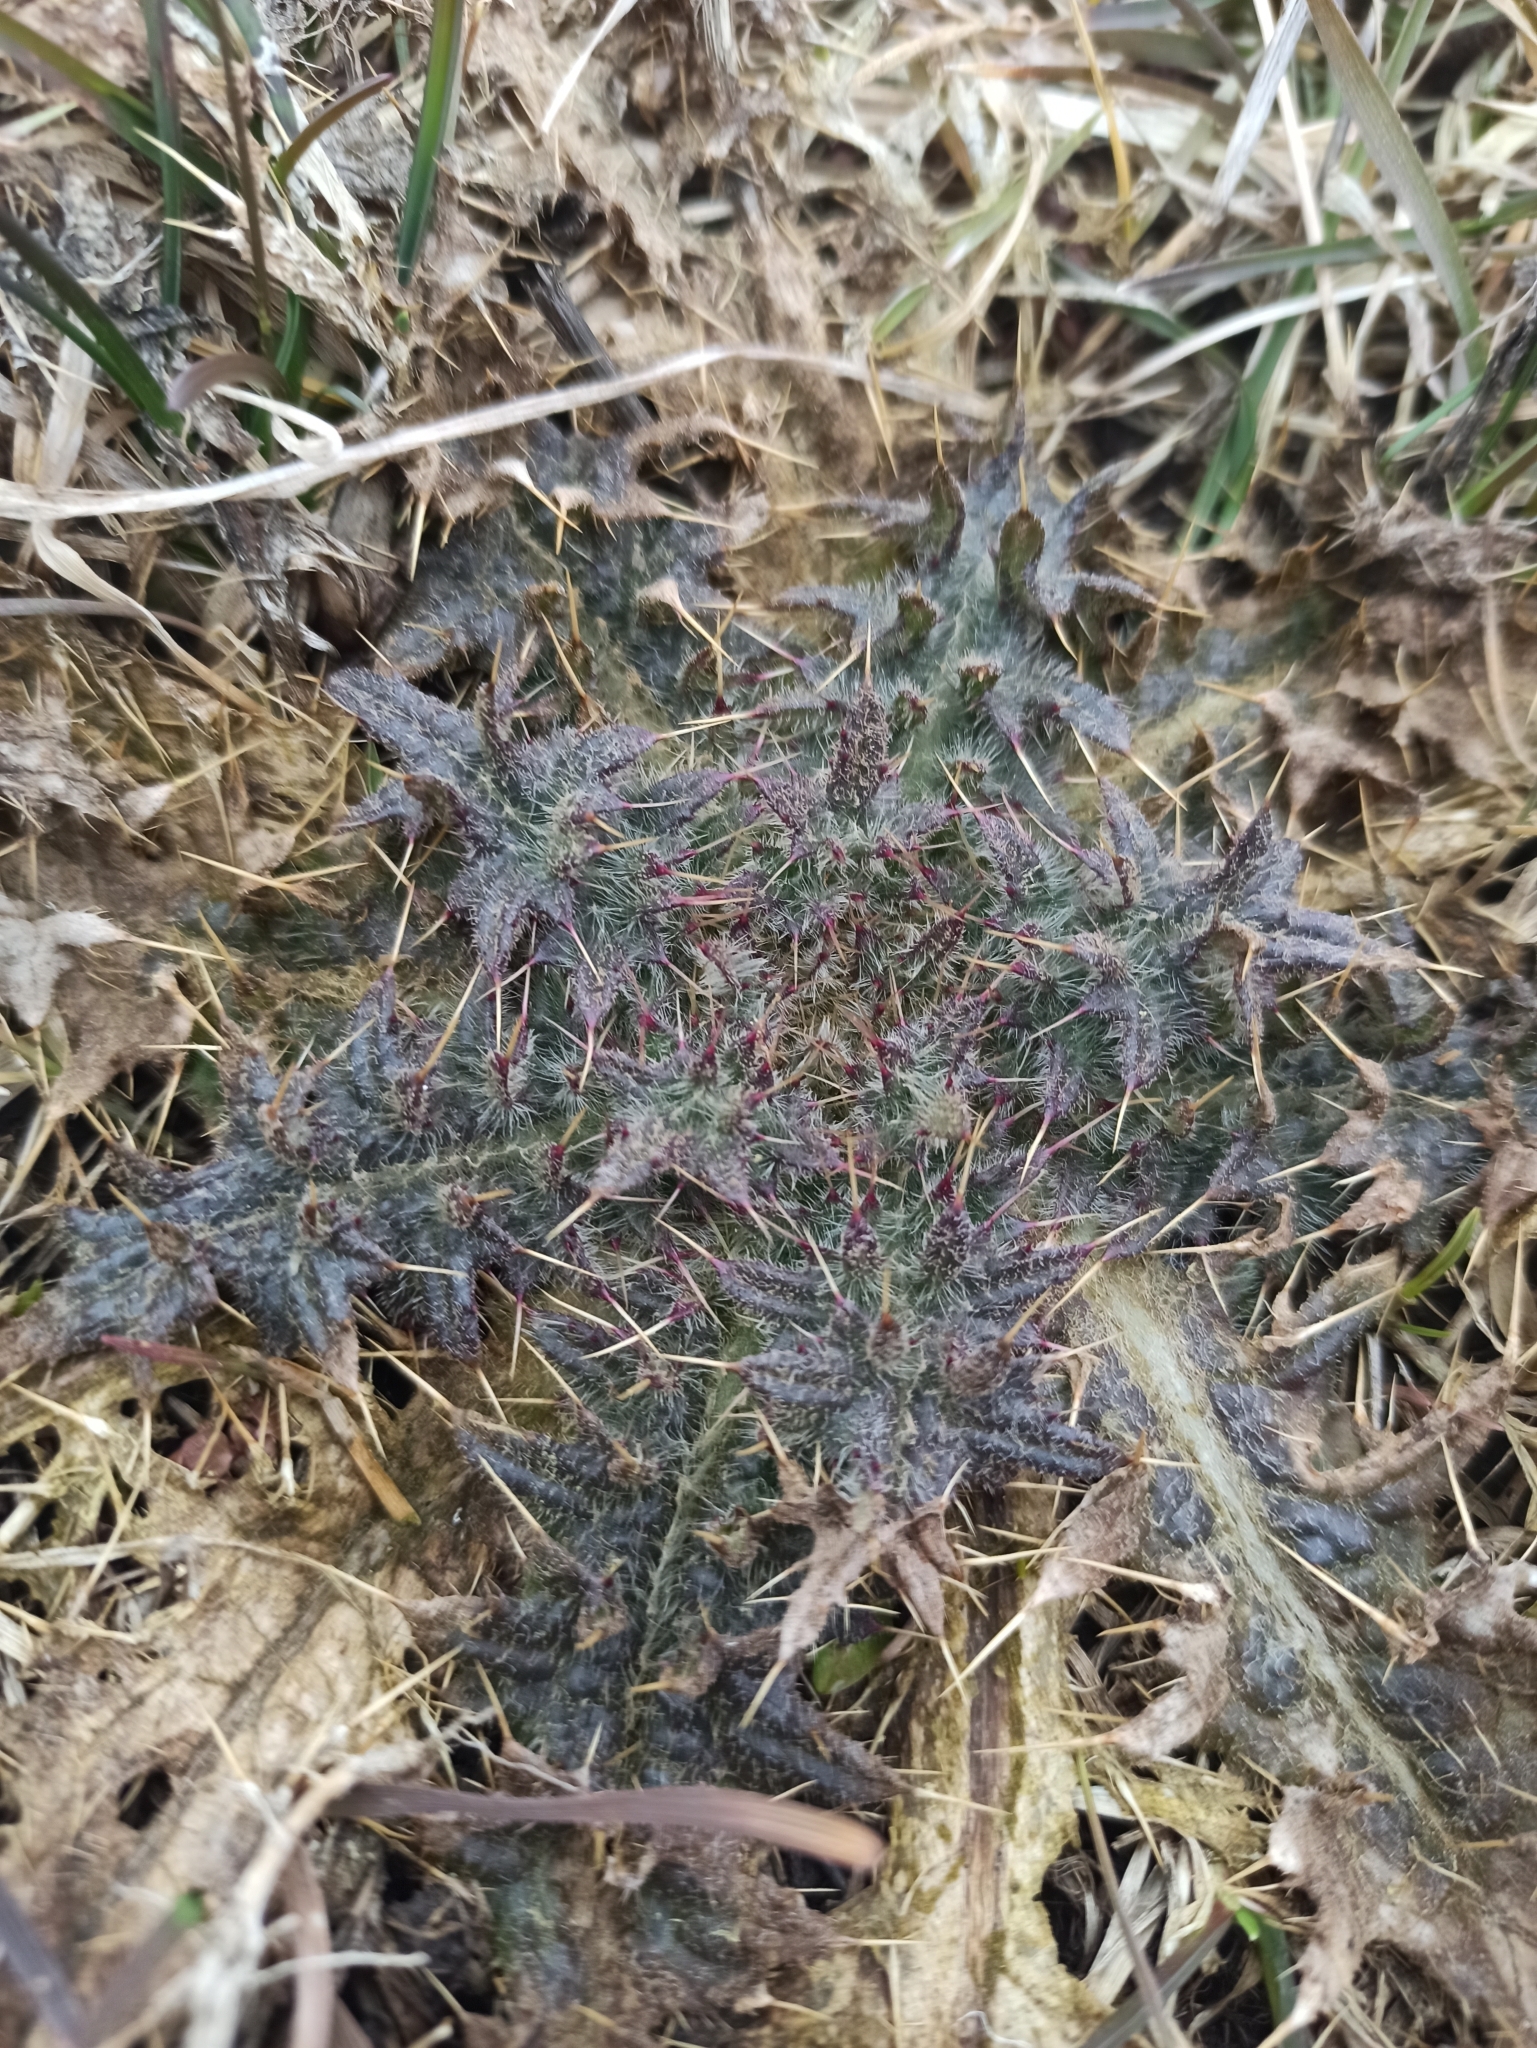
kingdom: Plantae
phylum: Tracheophyta
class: Magnoliopsida
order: Asterales
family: Asteraceae
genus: Cirsium
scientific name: Cirsium vulgare
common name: Bull thistle
